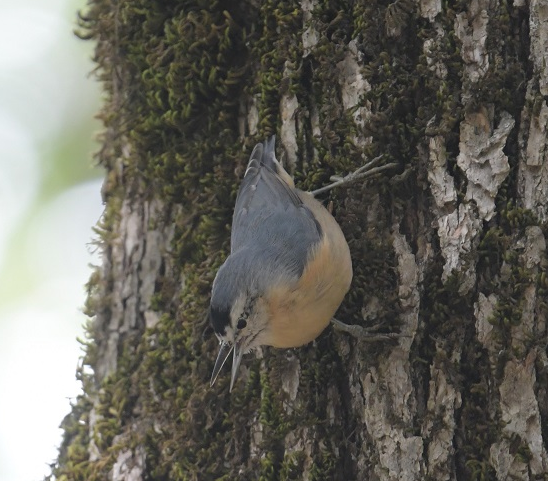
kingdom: Animalia
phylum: Chordata
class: Aves
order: Passeriformes
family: Sittidae
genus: Sitta
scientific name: Sitta ledanti
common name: Algerian nuthatch
